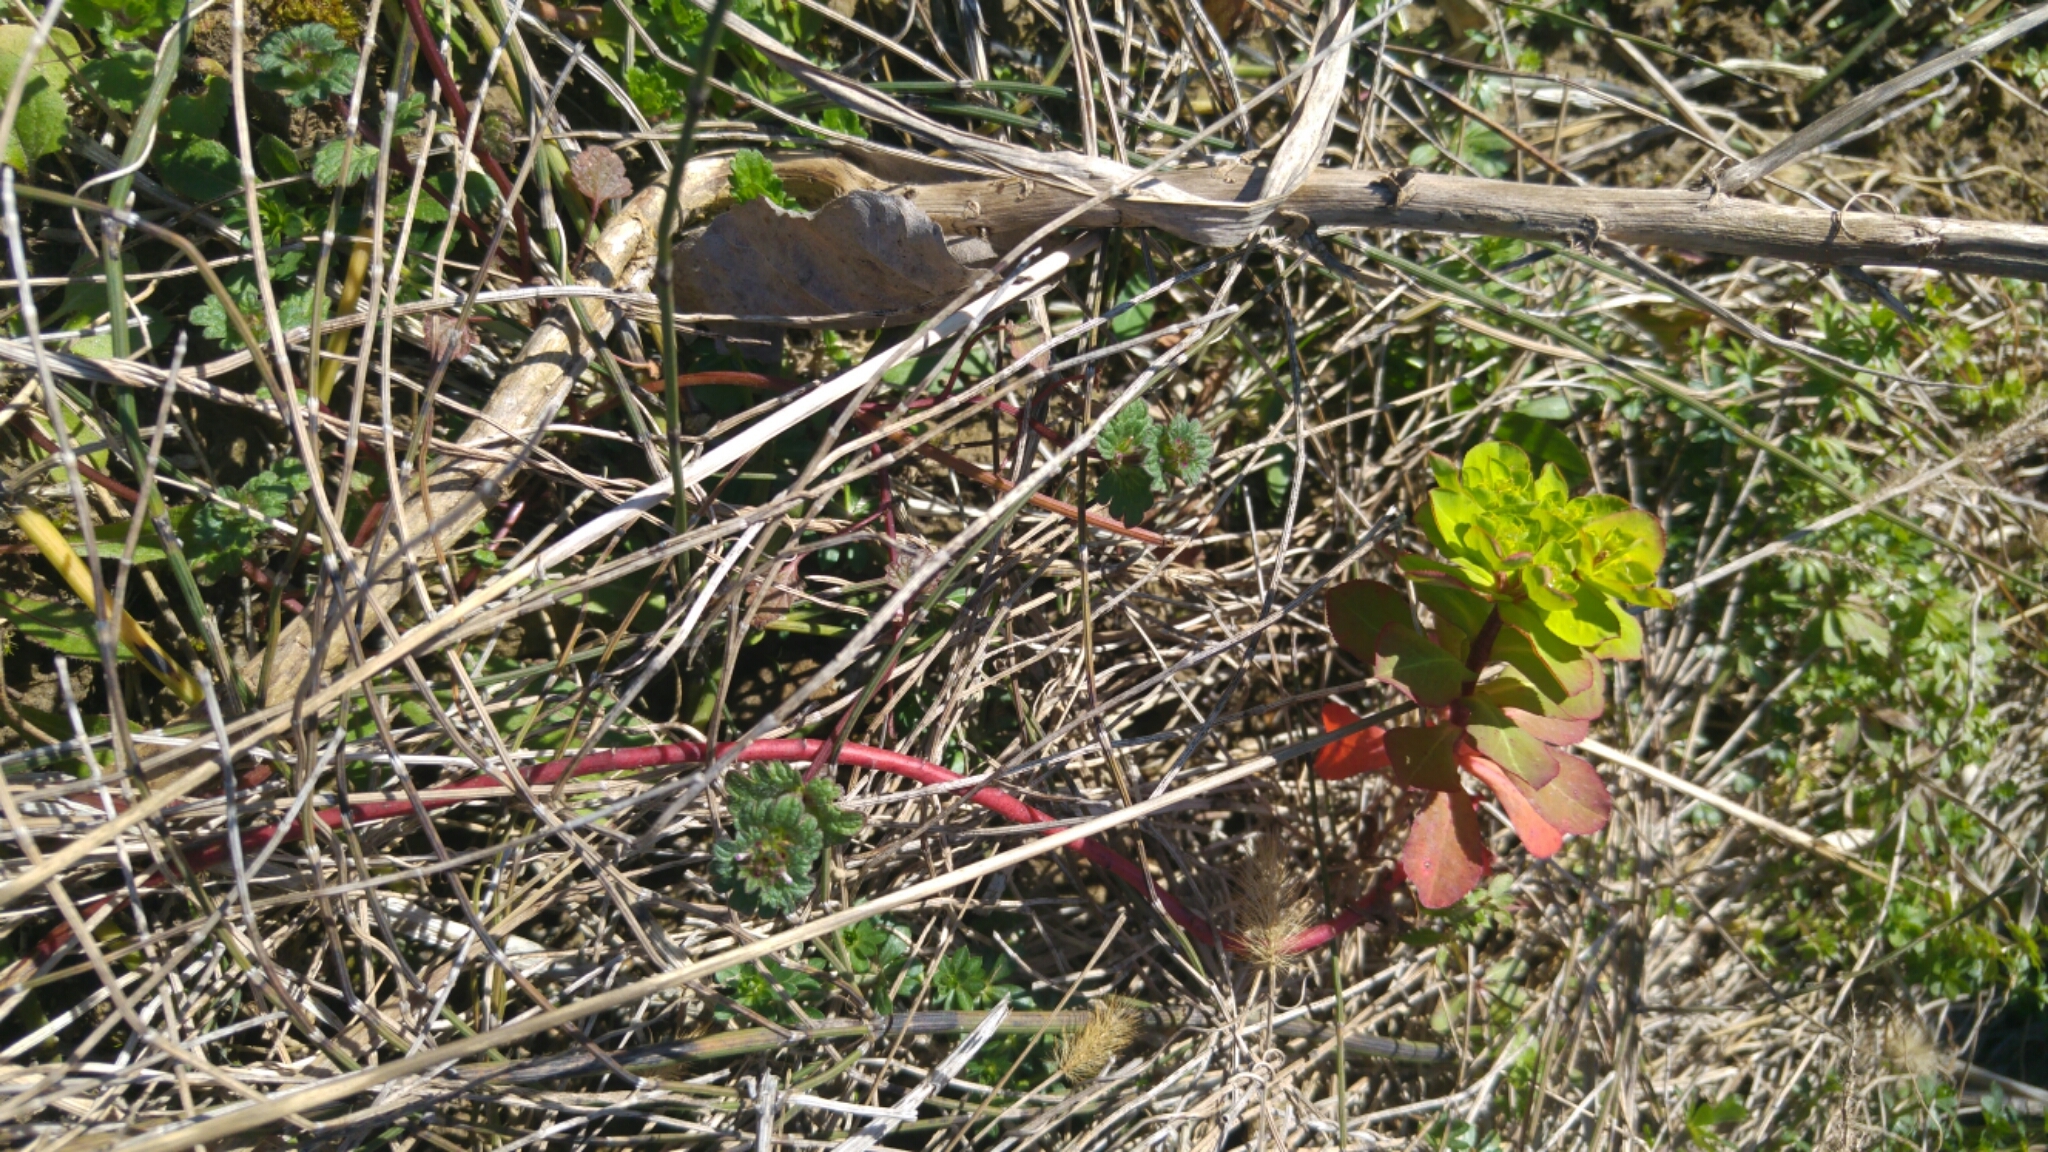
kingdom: Plantae
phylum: Tracheophyta
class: Magnoliopsida
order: Malpighiales
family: Euphorbiaceae
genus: Euphorbia
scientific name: Euphorbia helioscopia
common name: Sun spurge
